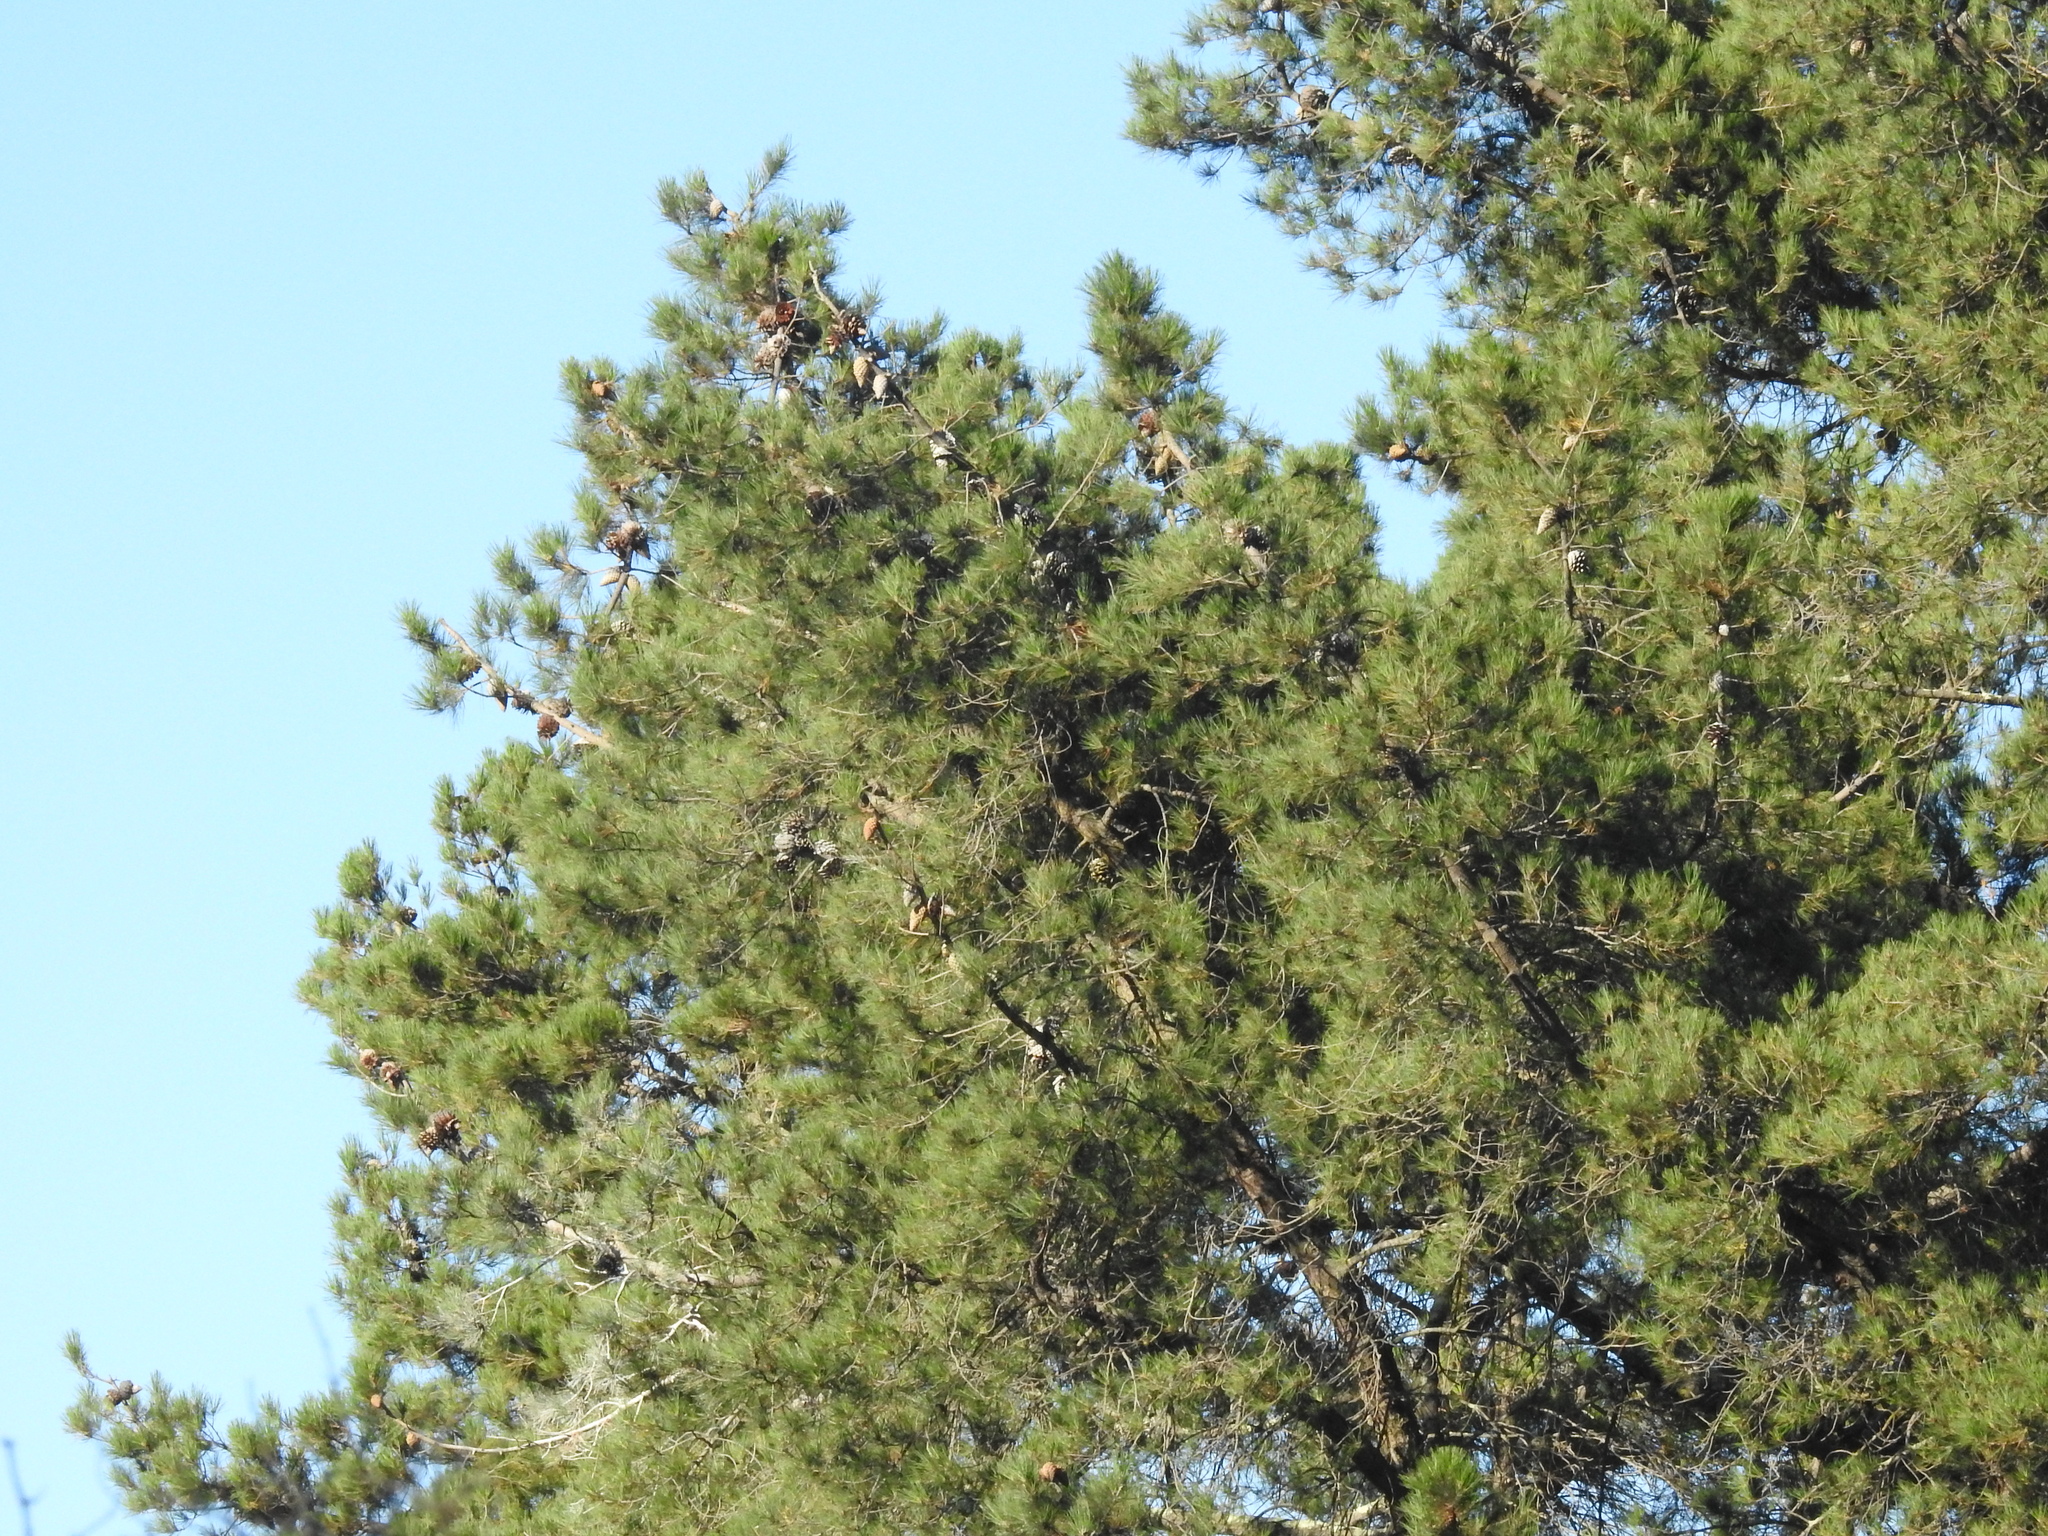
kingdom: Plantae
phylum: Tracheophyta
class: Pinopsida
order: Pinales
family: Pinaceae
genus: Pinus
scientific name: Pinus radiata
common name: Monterey pine
